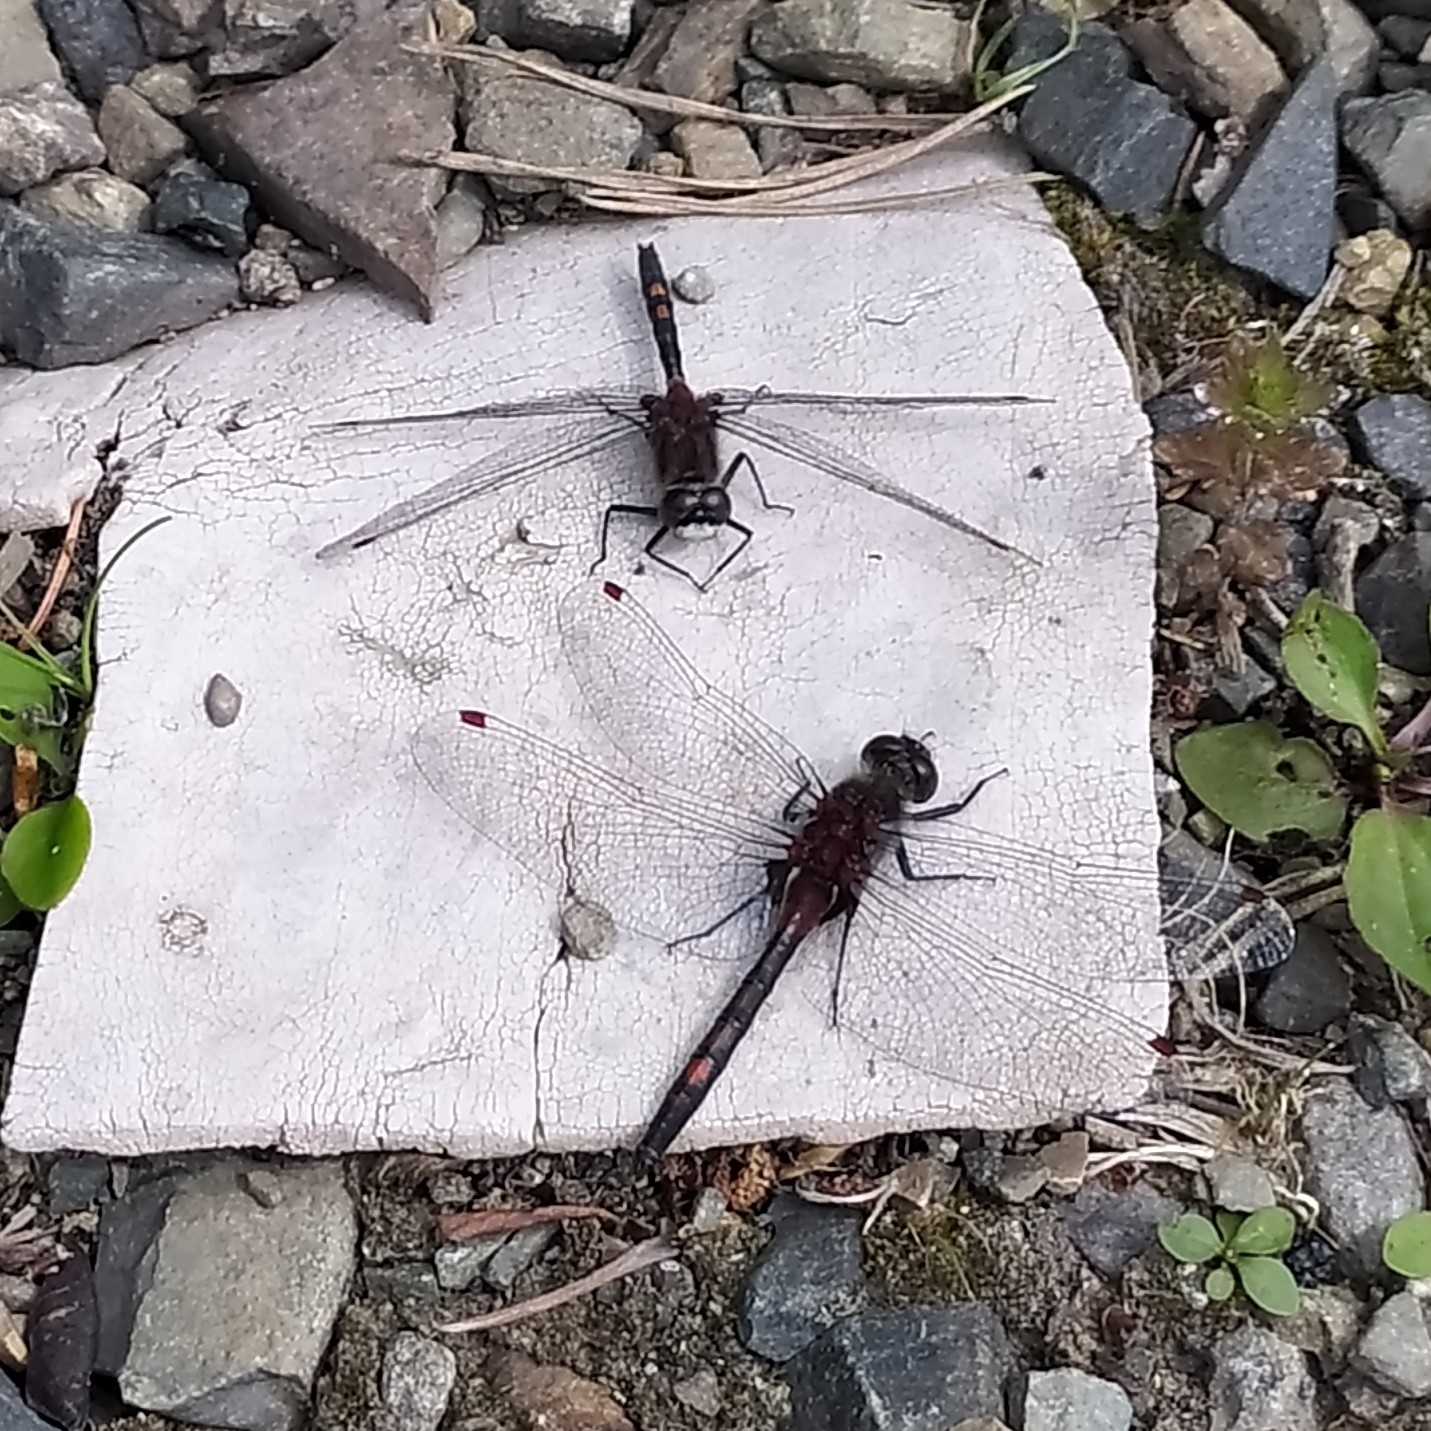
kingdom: Animalia
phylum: Arthropoda
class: Insecta
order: Odonata
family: Libellulidae
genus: Leucorrhinia
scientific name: Leucorrhinia rubicunda
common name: Ruby whiteface
